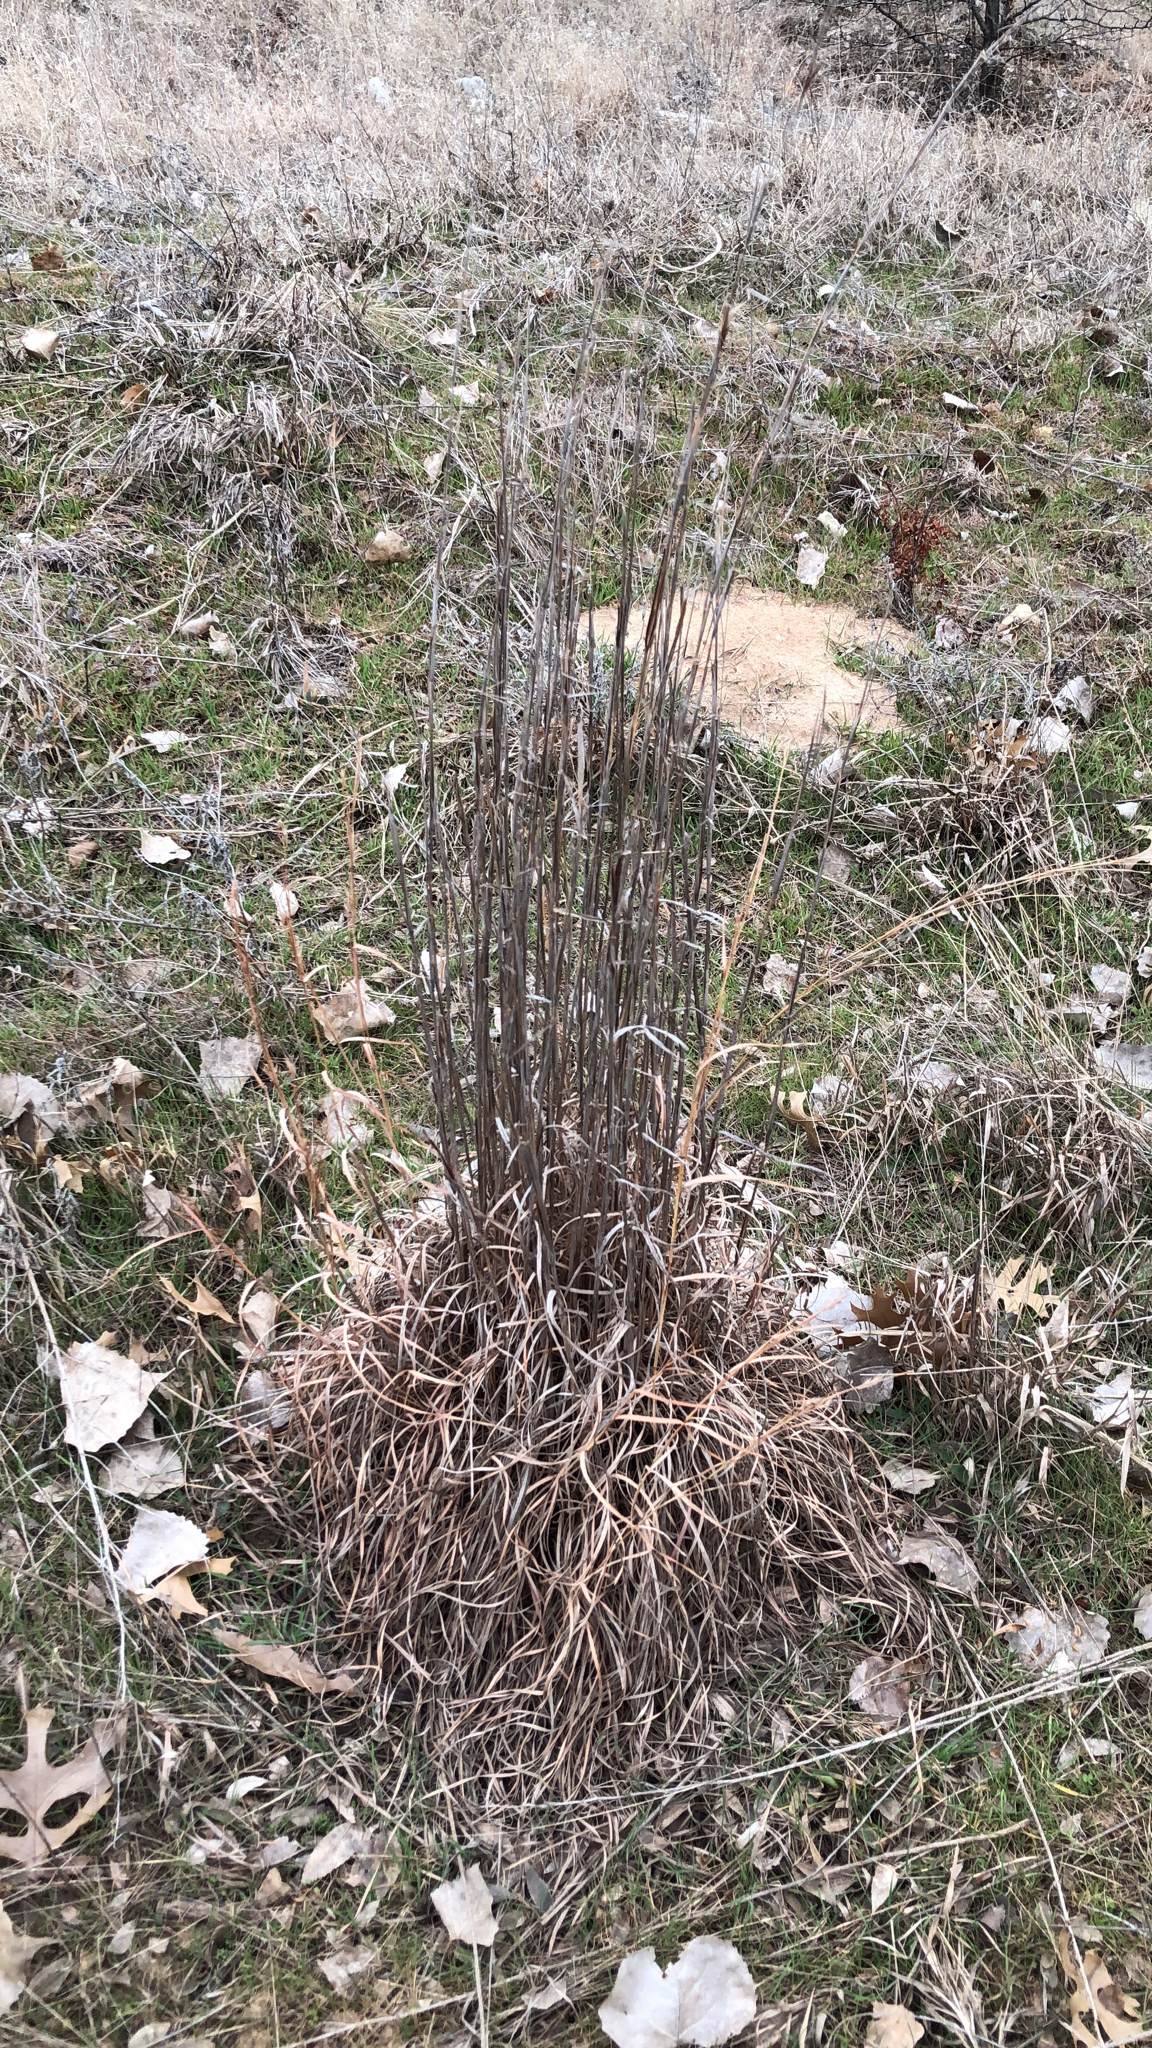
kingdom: Plantae
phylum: Tracheophyta
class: Liliopsida
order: Poales
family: Poaceae
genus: Schizachyrium
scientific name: Schizachyrium scoparium
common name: Little bluestem
